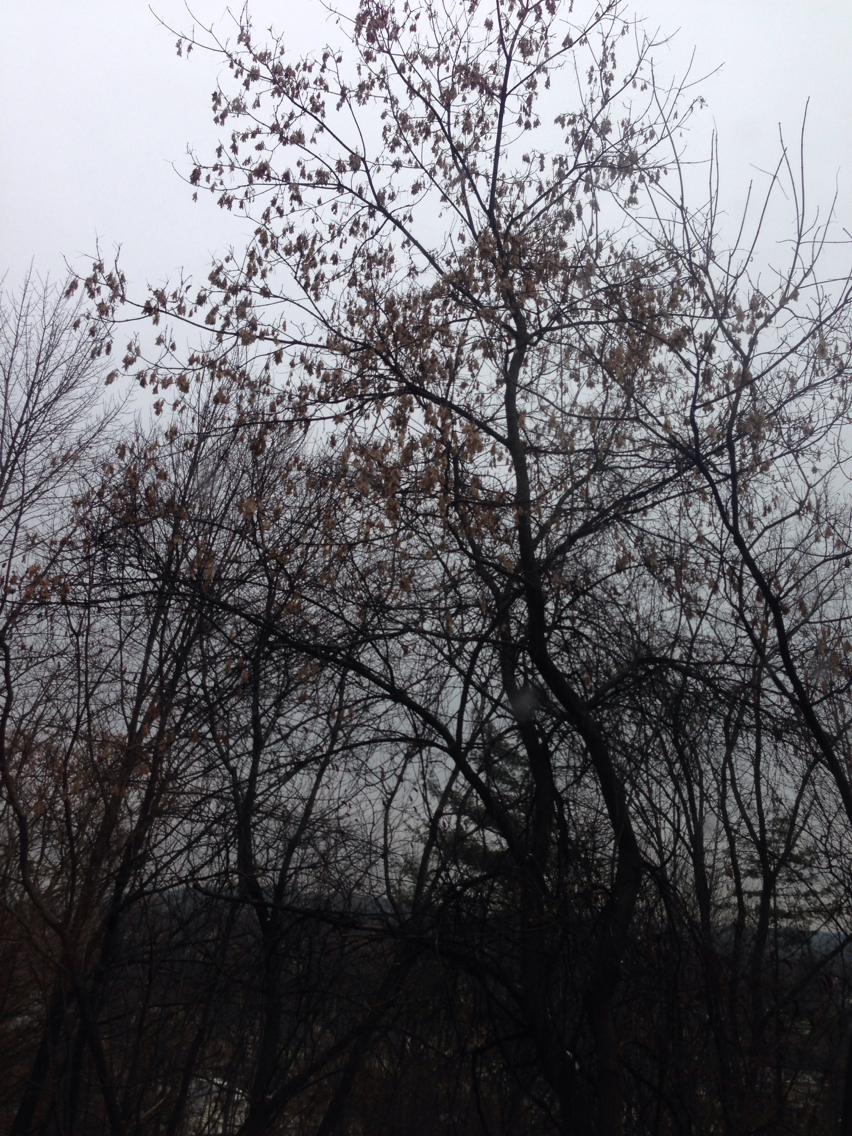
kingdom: Plantae
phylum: Tracheophyta
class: Magnoliopsida
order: Sapindales
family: Sapindaceae
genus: Acer
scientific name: Acer negundo
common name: Ashleaf maple
